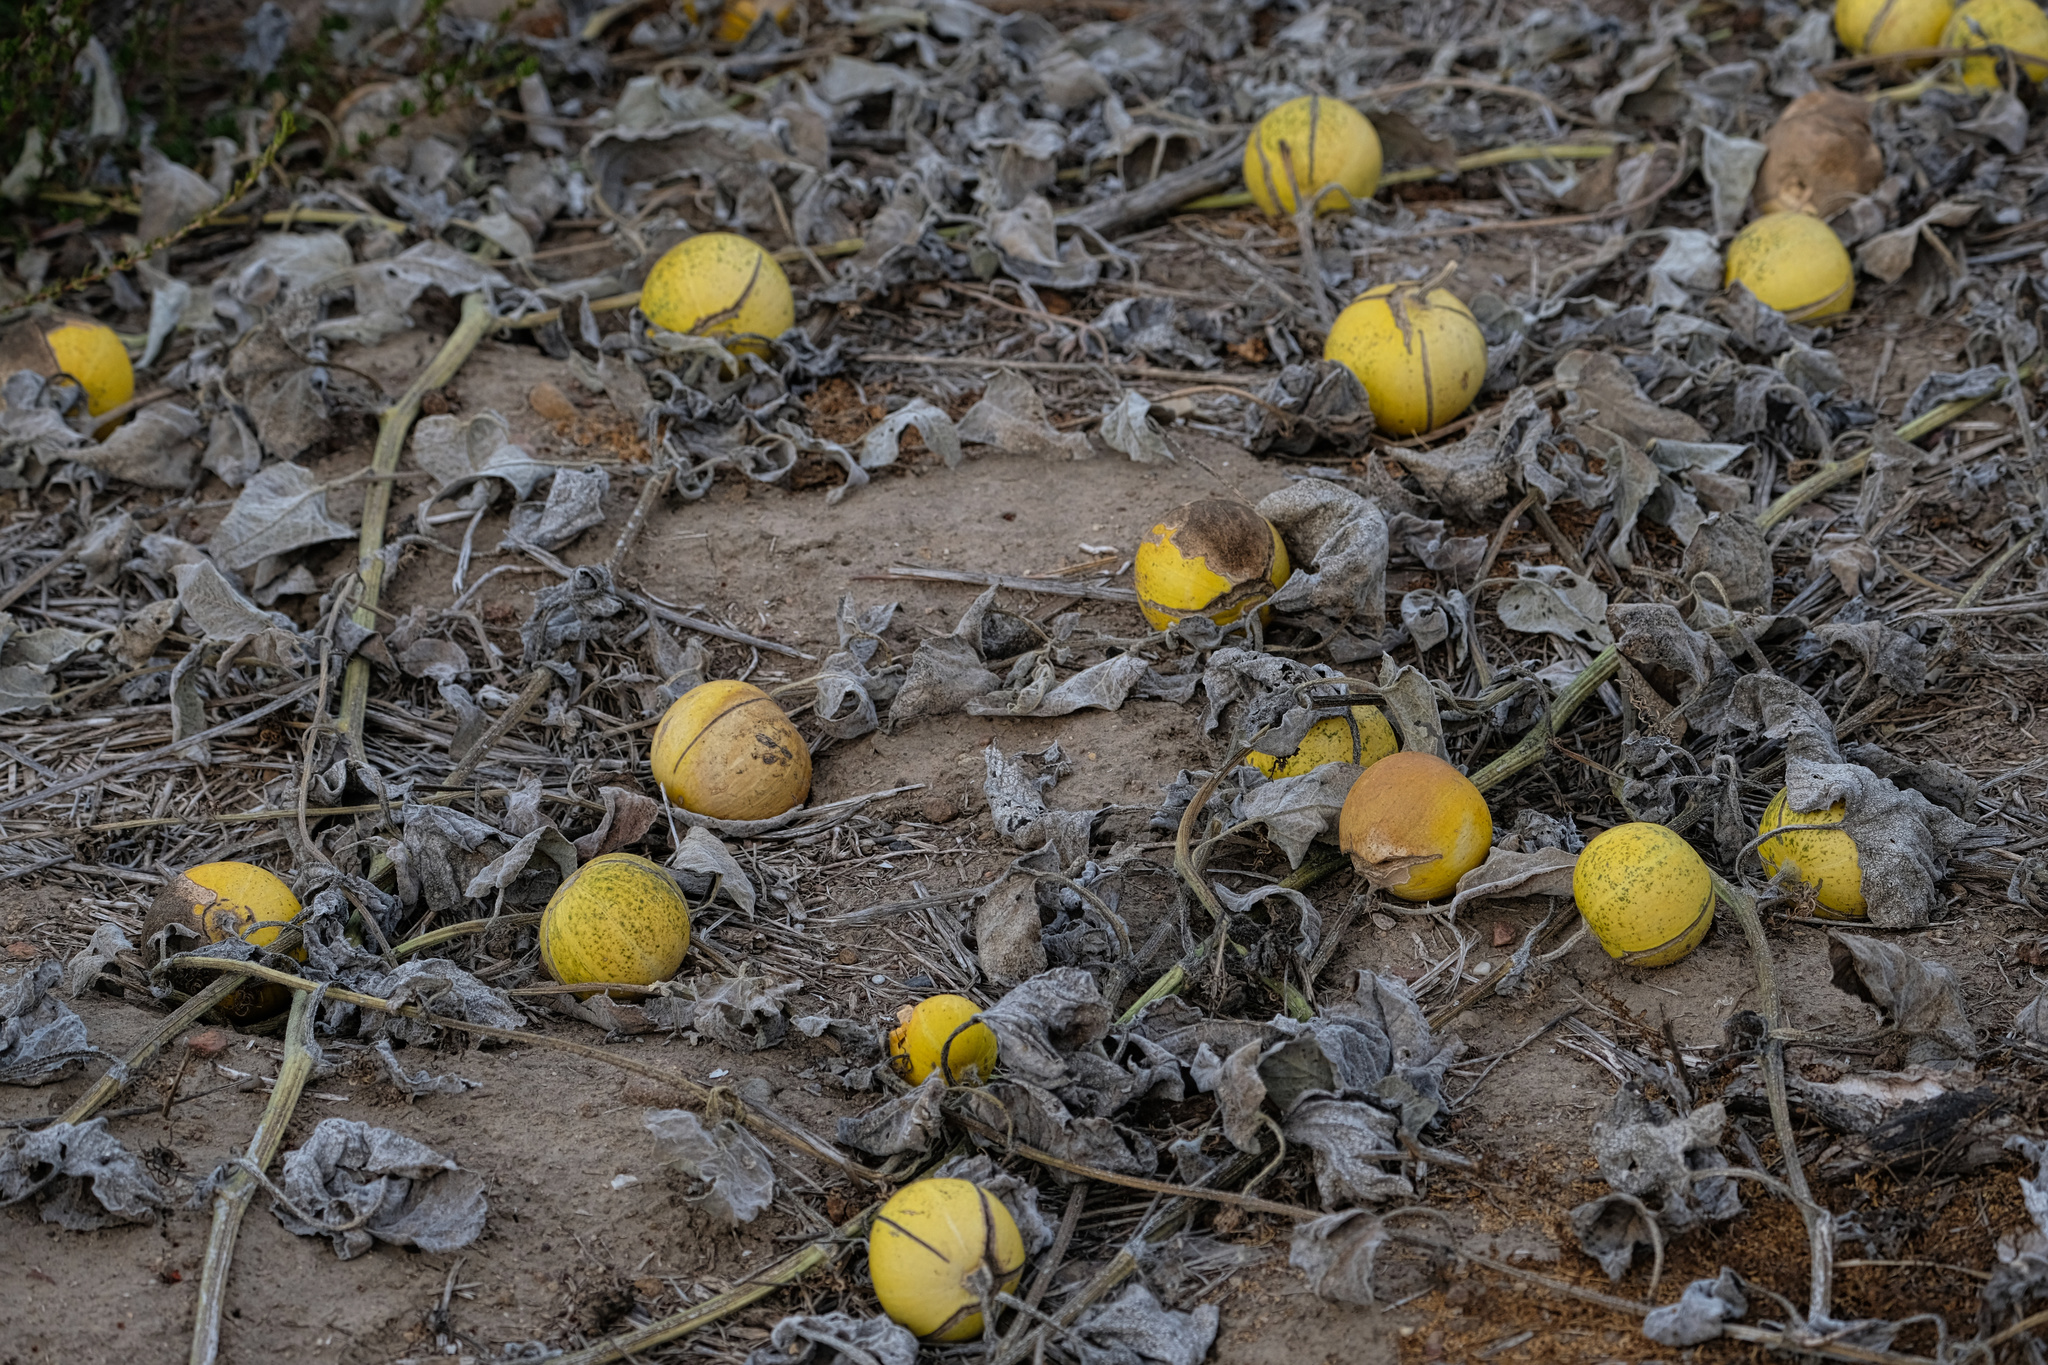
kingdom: Plantae
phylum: Tracheophyta
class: Magnoliopsida
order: Cucurbitales
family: Cucurbitaceae
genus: Cucurbita
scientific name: Cucurbita foetidissima
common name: Buffalo gourd
